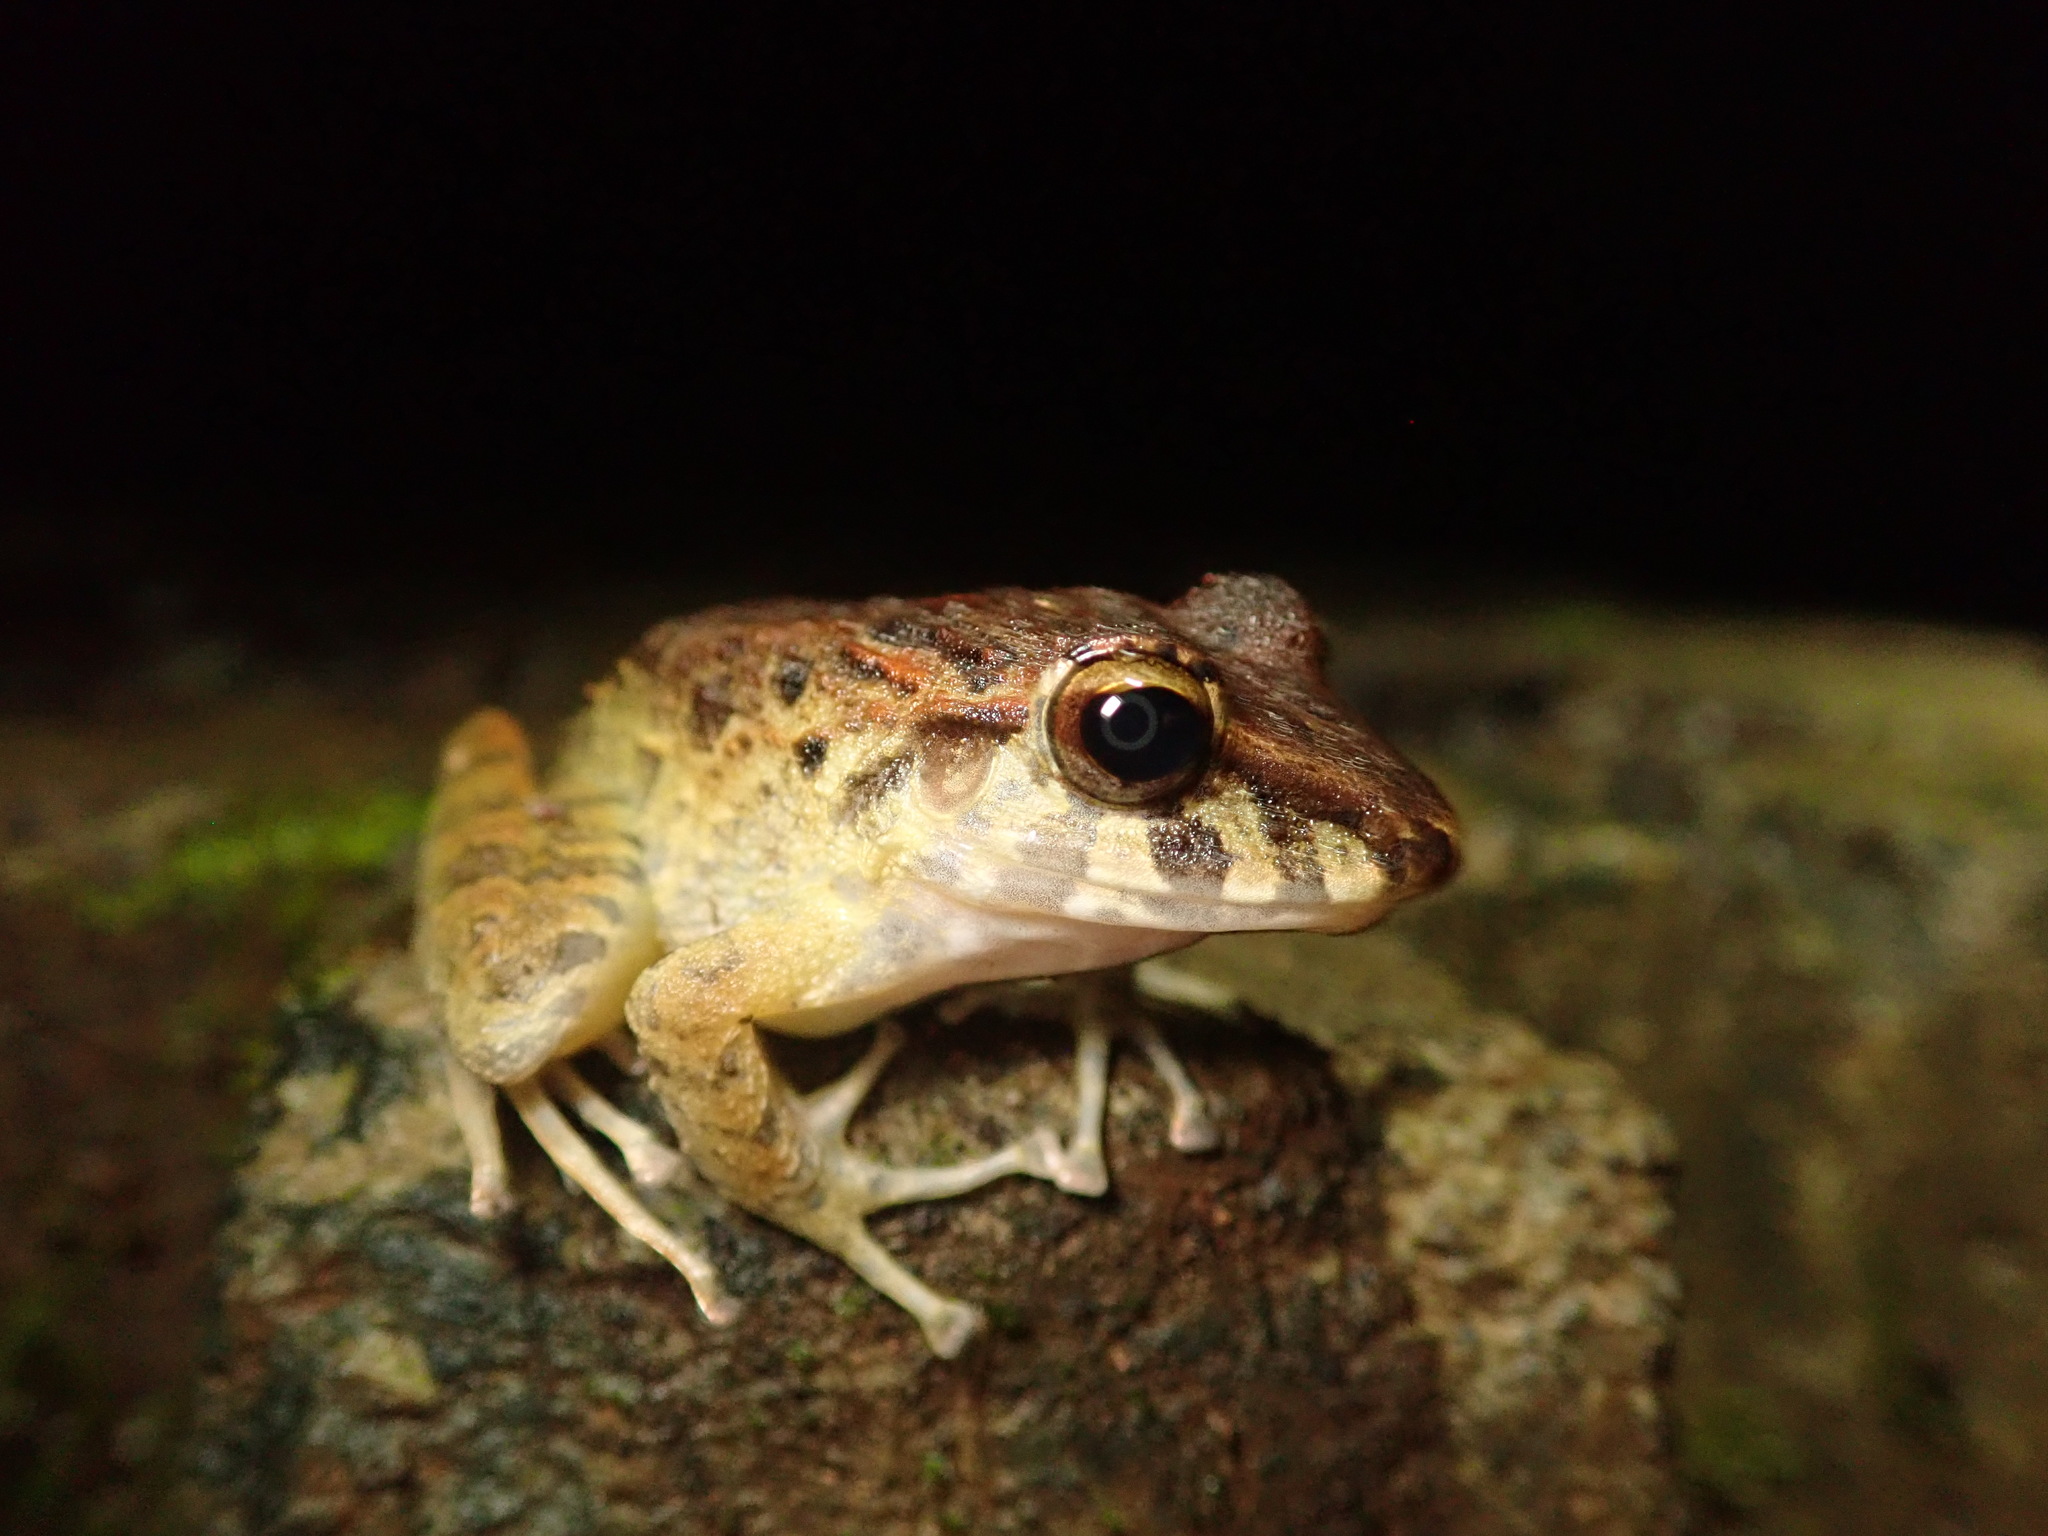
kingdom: Animalia
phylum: Chordata
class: Amphibia
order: Anura
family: Craugastoridae
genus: Craugastor
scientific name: Craugastor fitzingeri
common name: Fitzinger's robber frog
